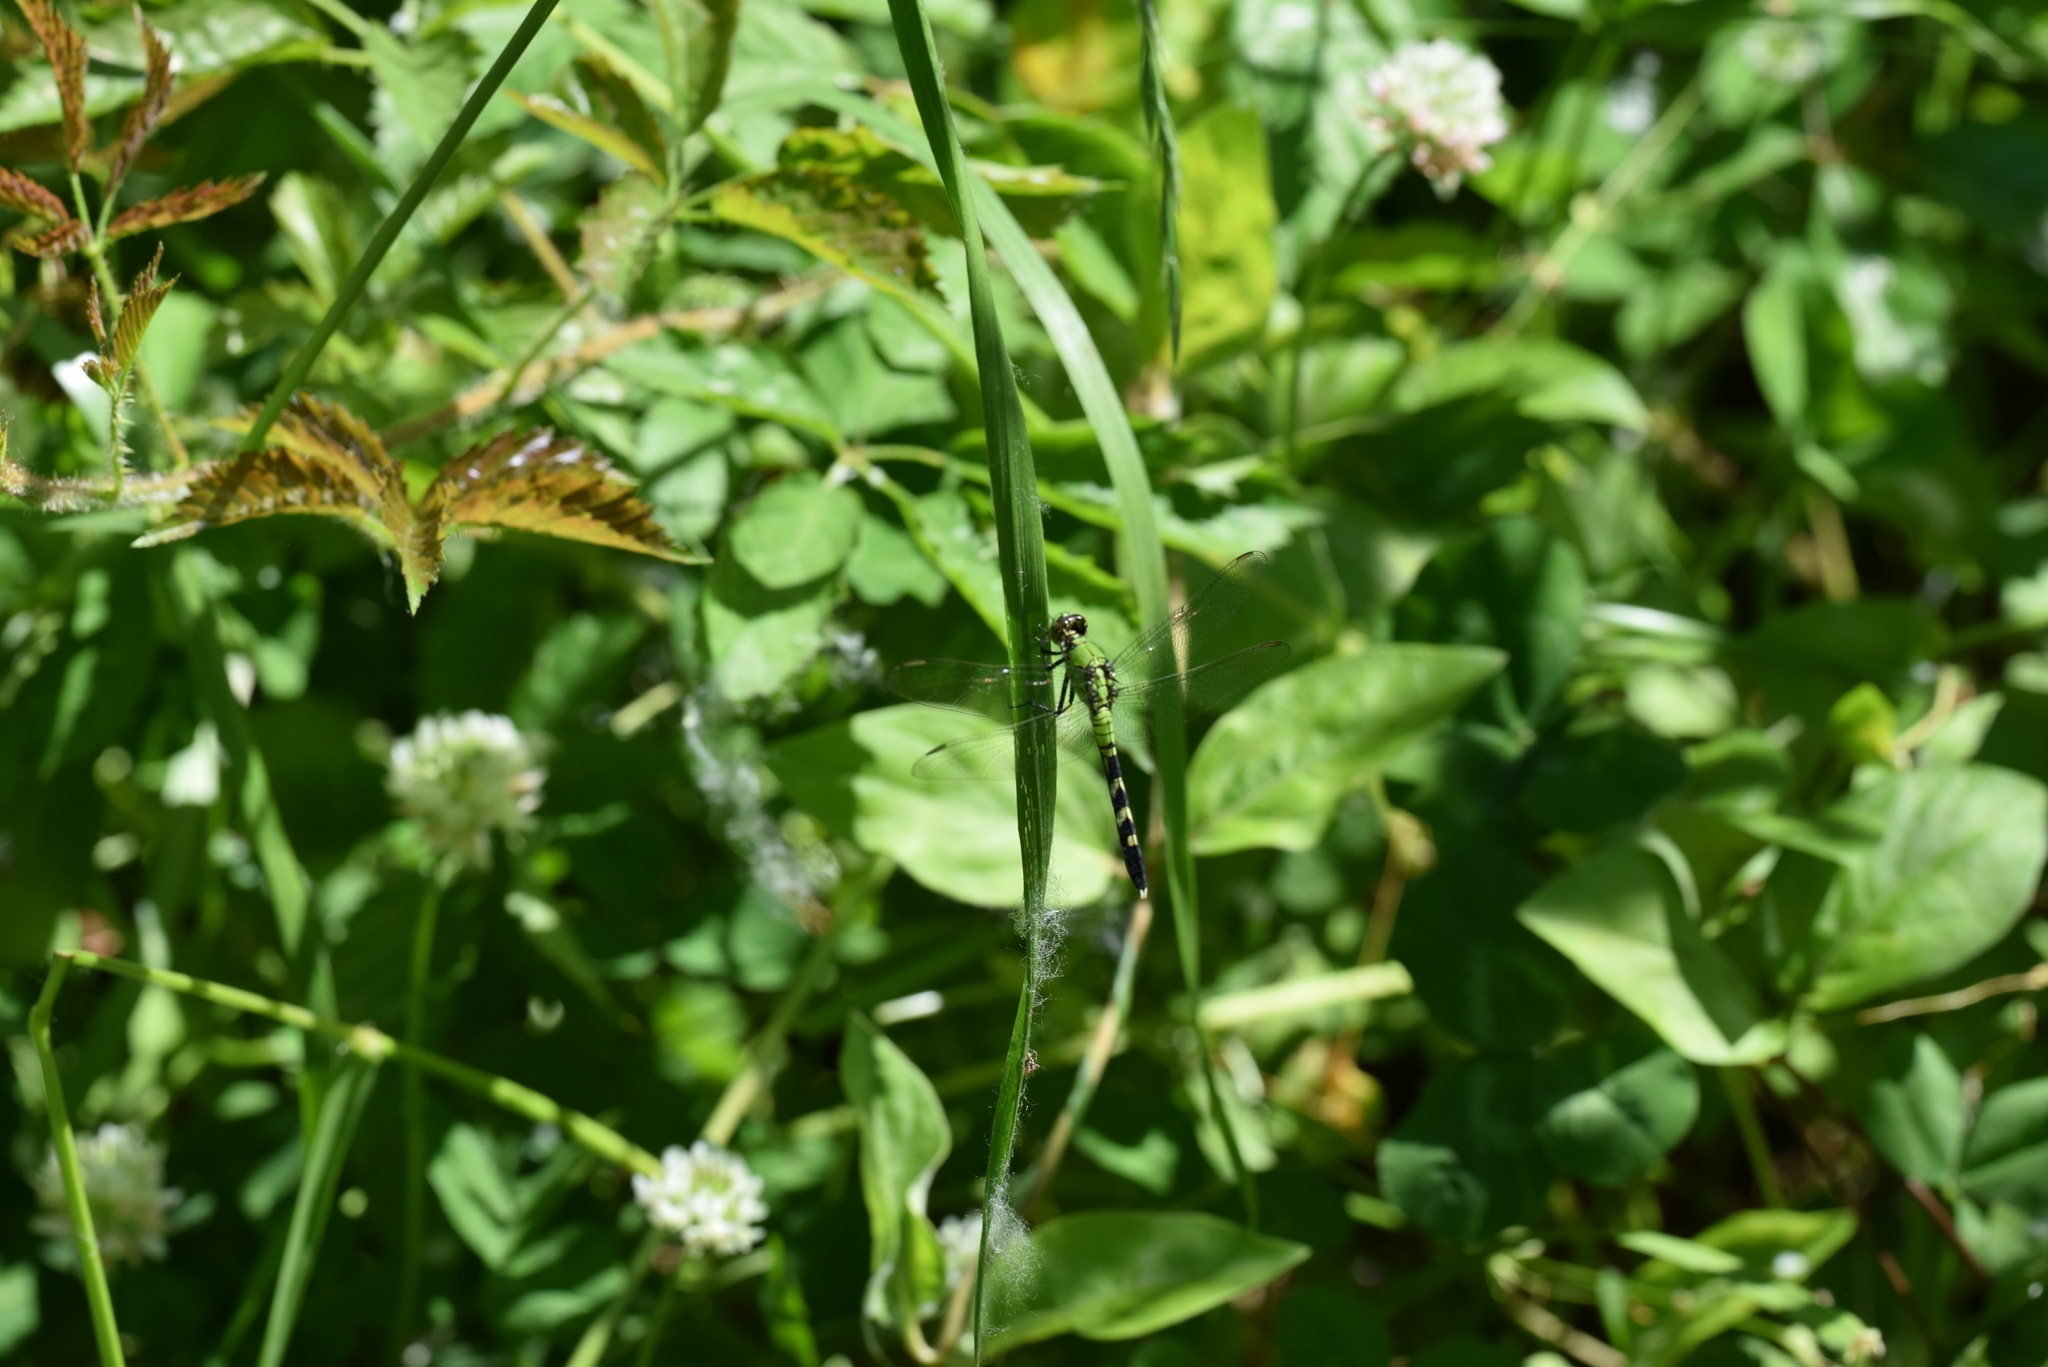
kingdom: Animalia
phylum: Arthropoda
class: Insecta
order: Odonata
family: Libellulidae
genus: Erythemis
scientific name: Erythemis simplicicollis
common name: Eastern pondhawk
